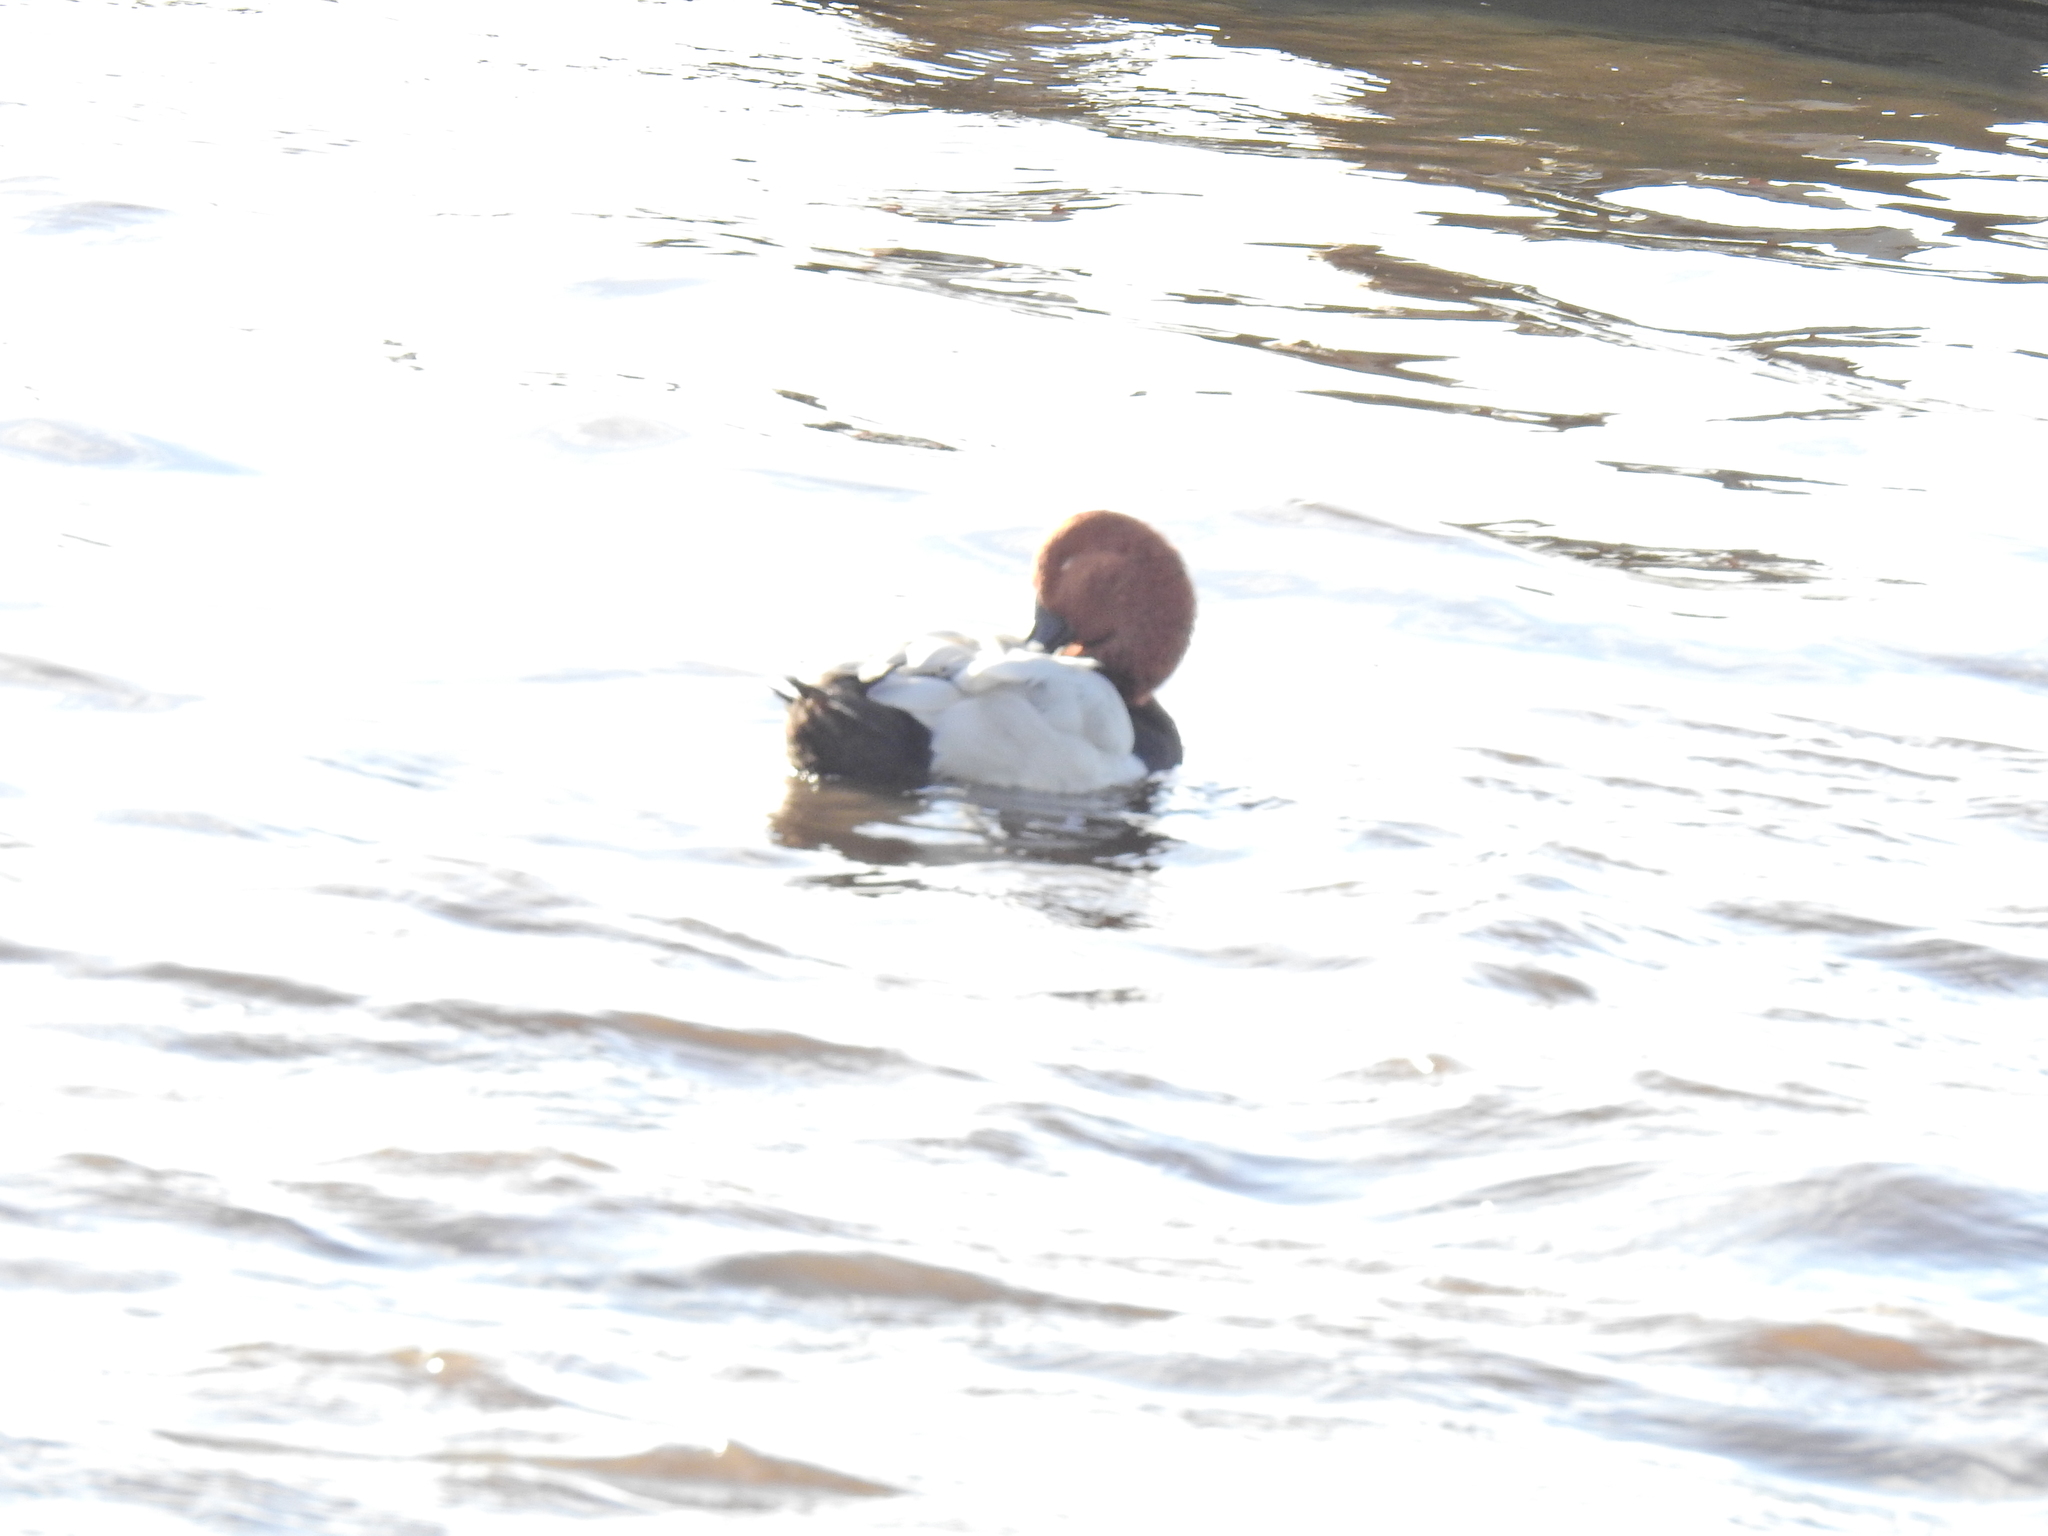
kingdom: Animalia
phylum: Chordata
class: Aves
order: Anseriformes
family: Anatidae
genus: Aythya
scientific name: Aythya ferina
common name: Common pochard
